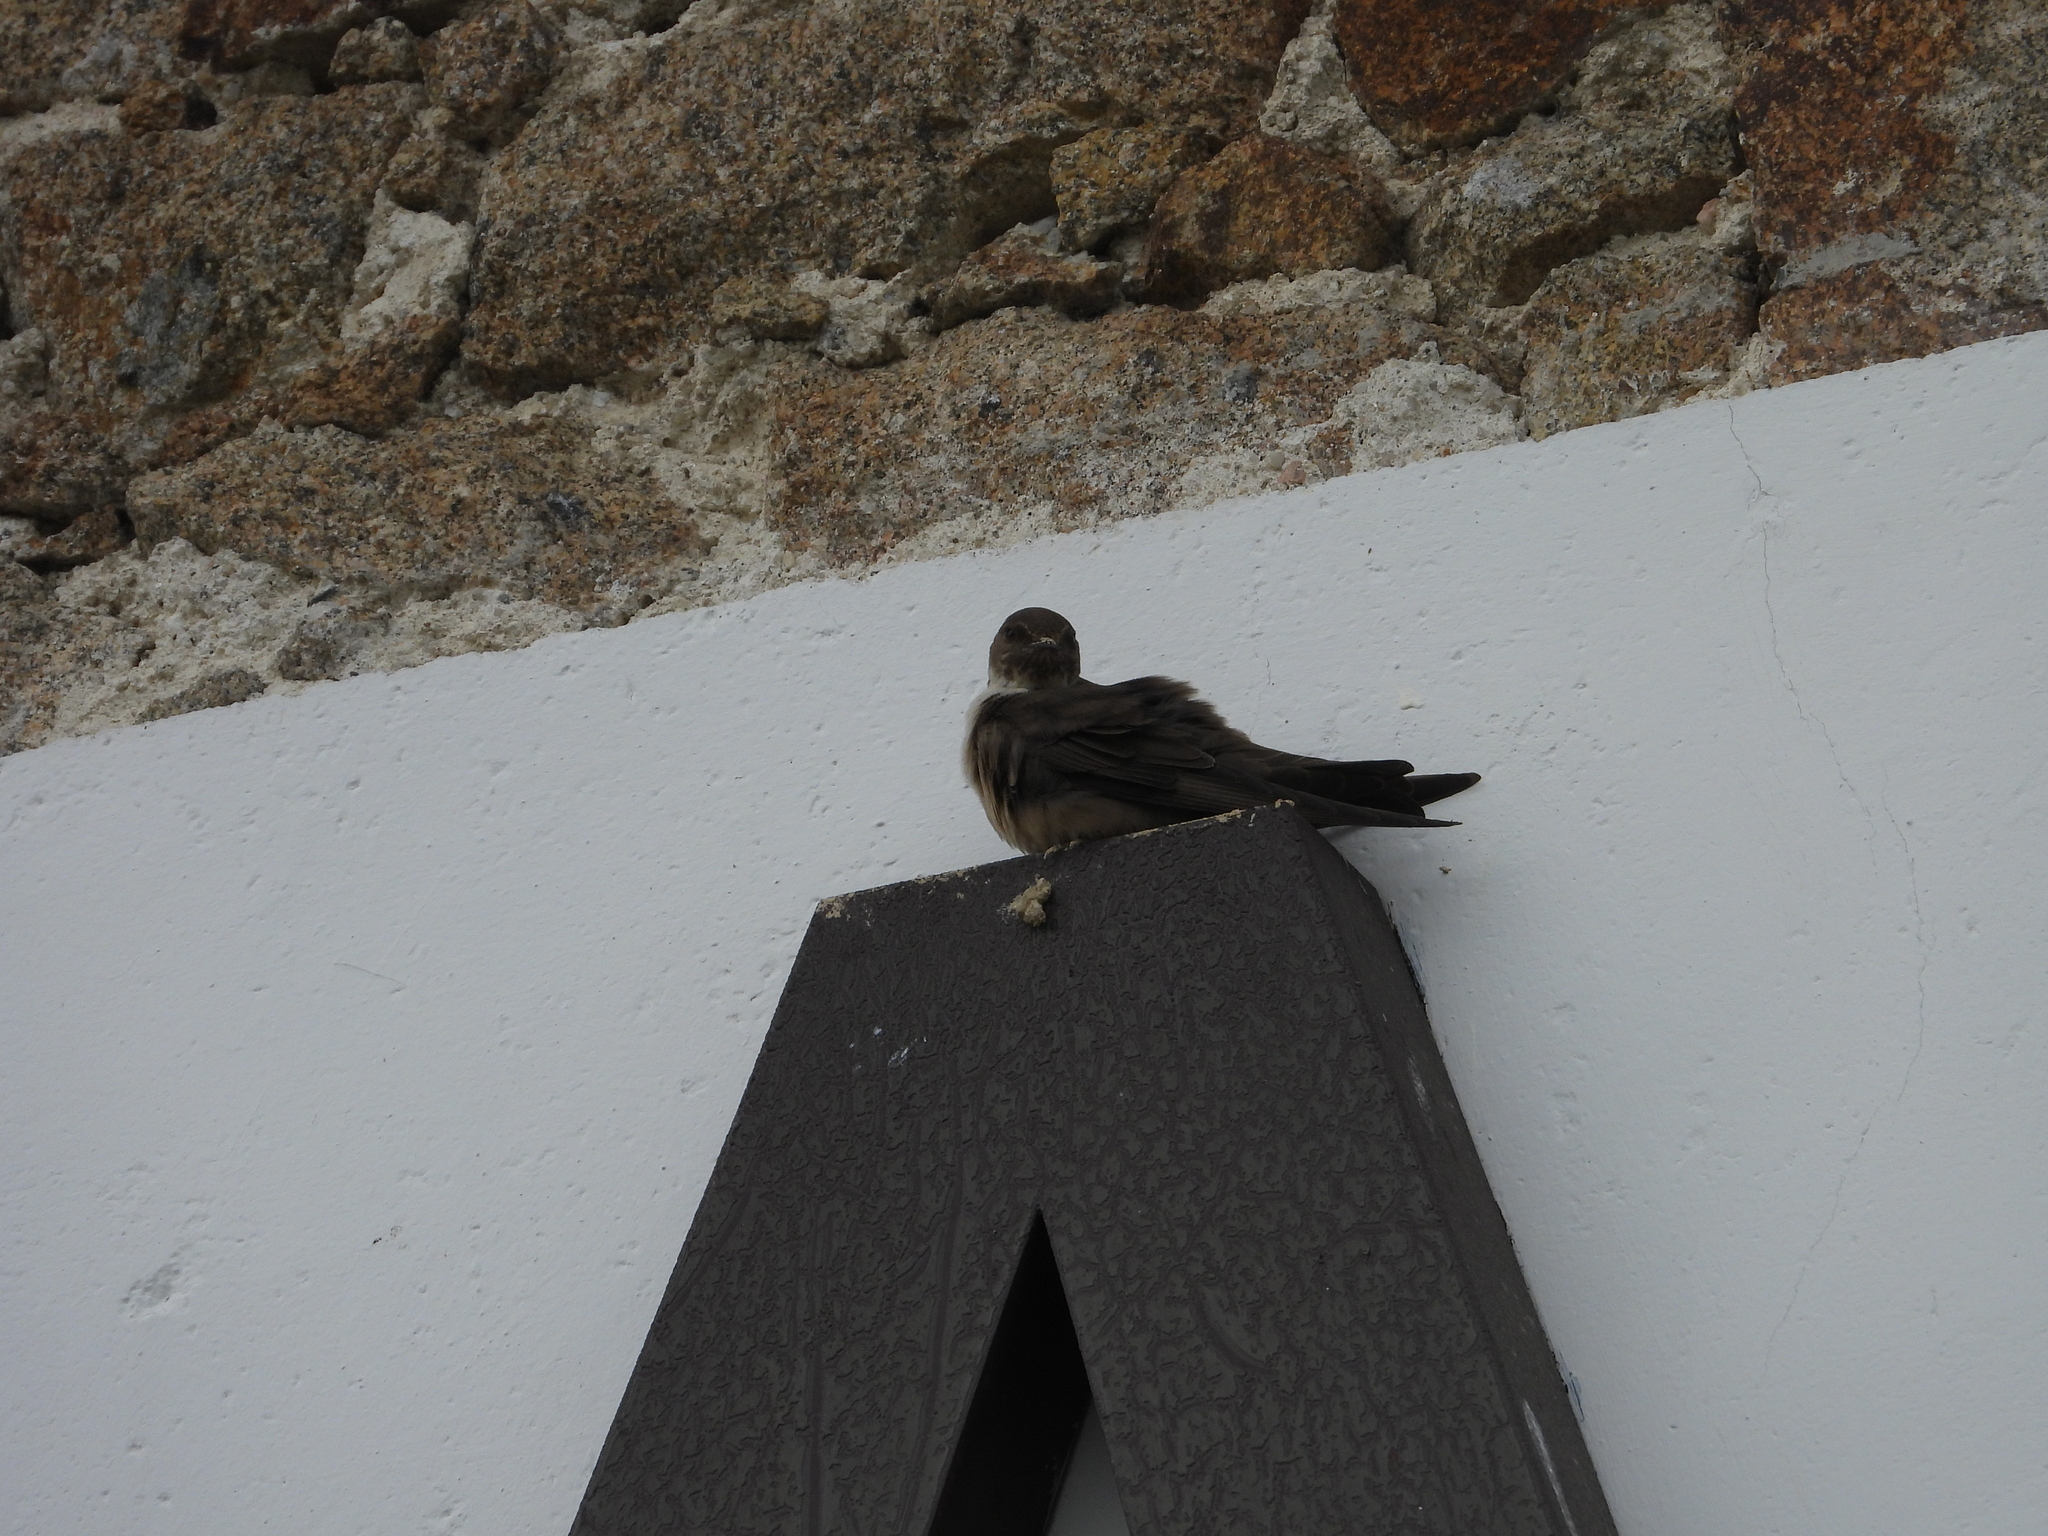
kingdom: Animalia
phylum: Chordata
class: Aves
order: Passeriformes
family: Hirundinidae
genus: Ptyonoprogne
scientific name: Ptyonoprogne rupestris
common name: Eurasian crag martin
